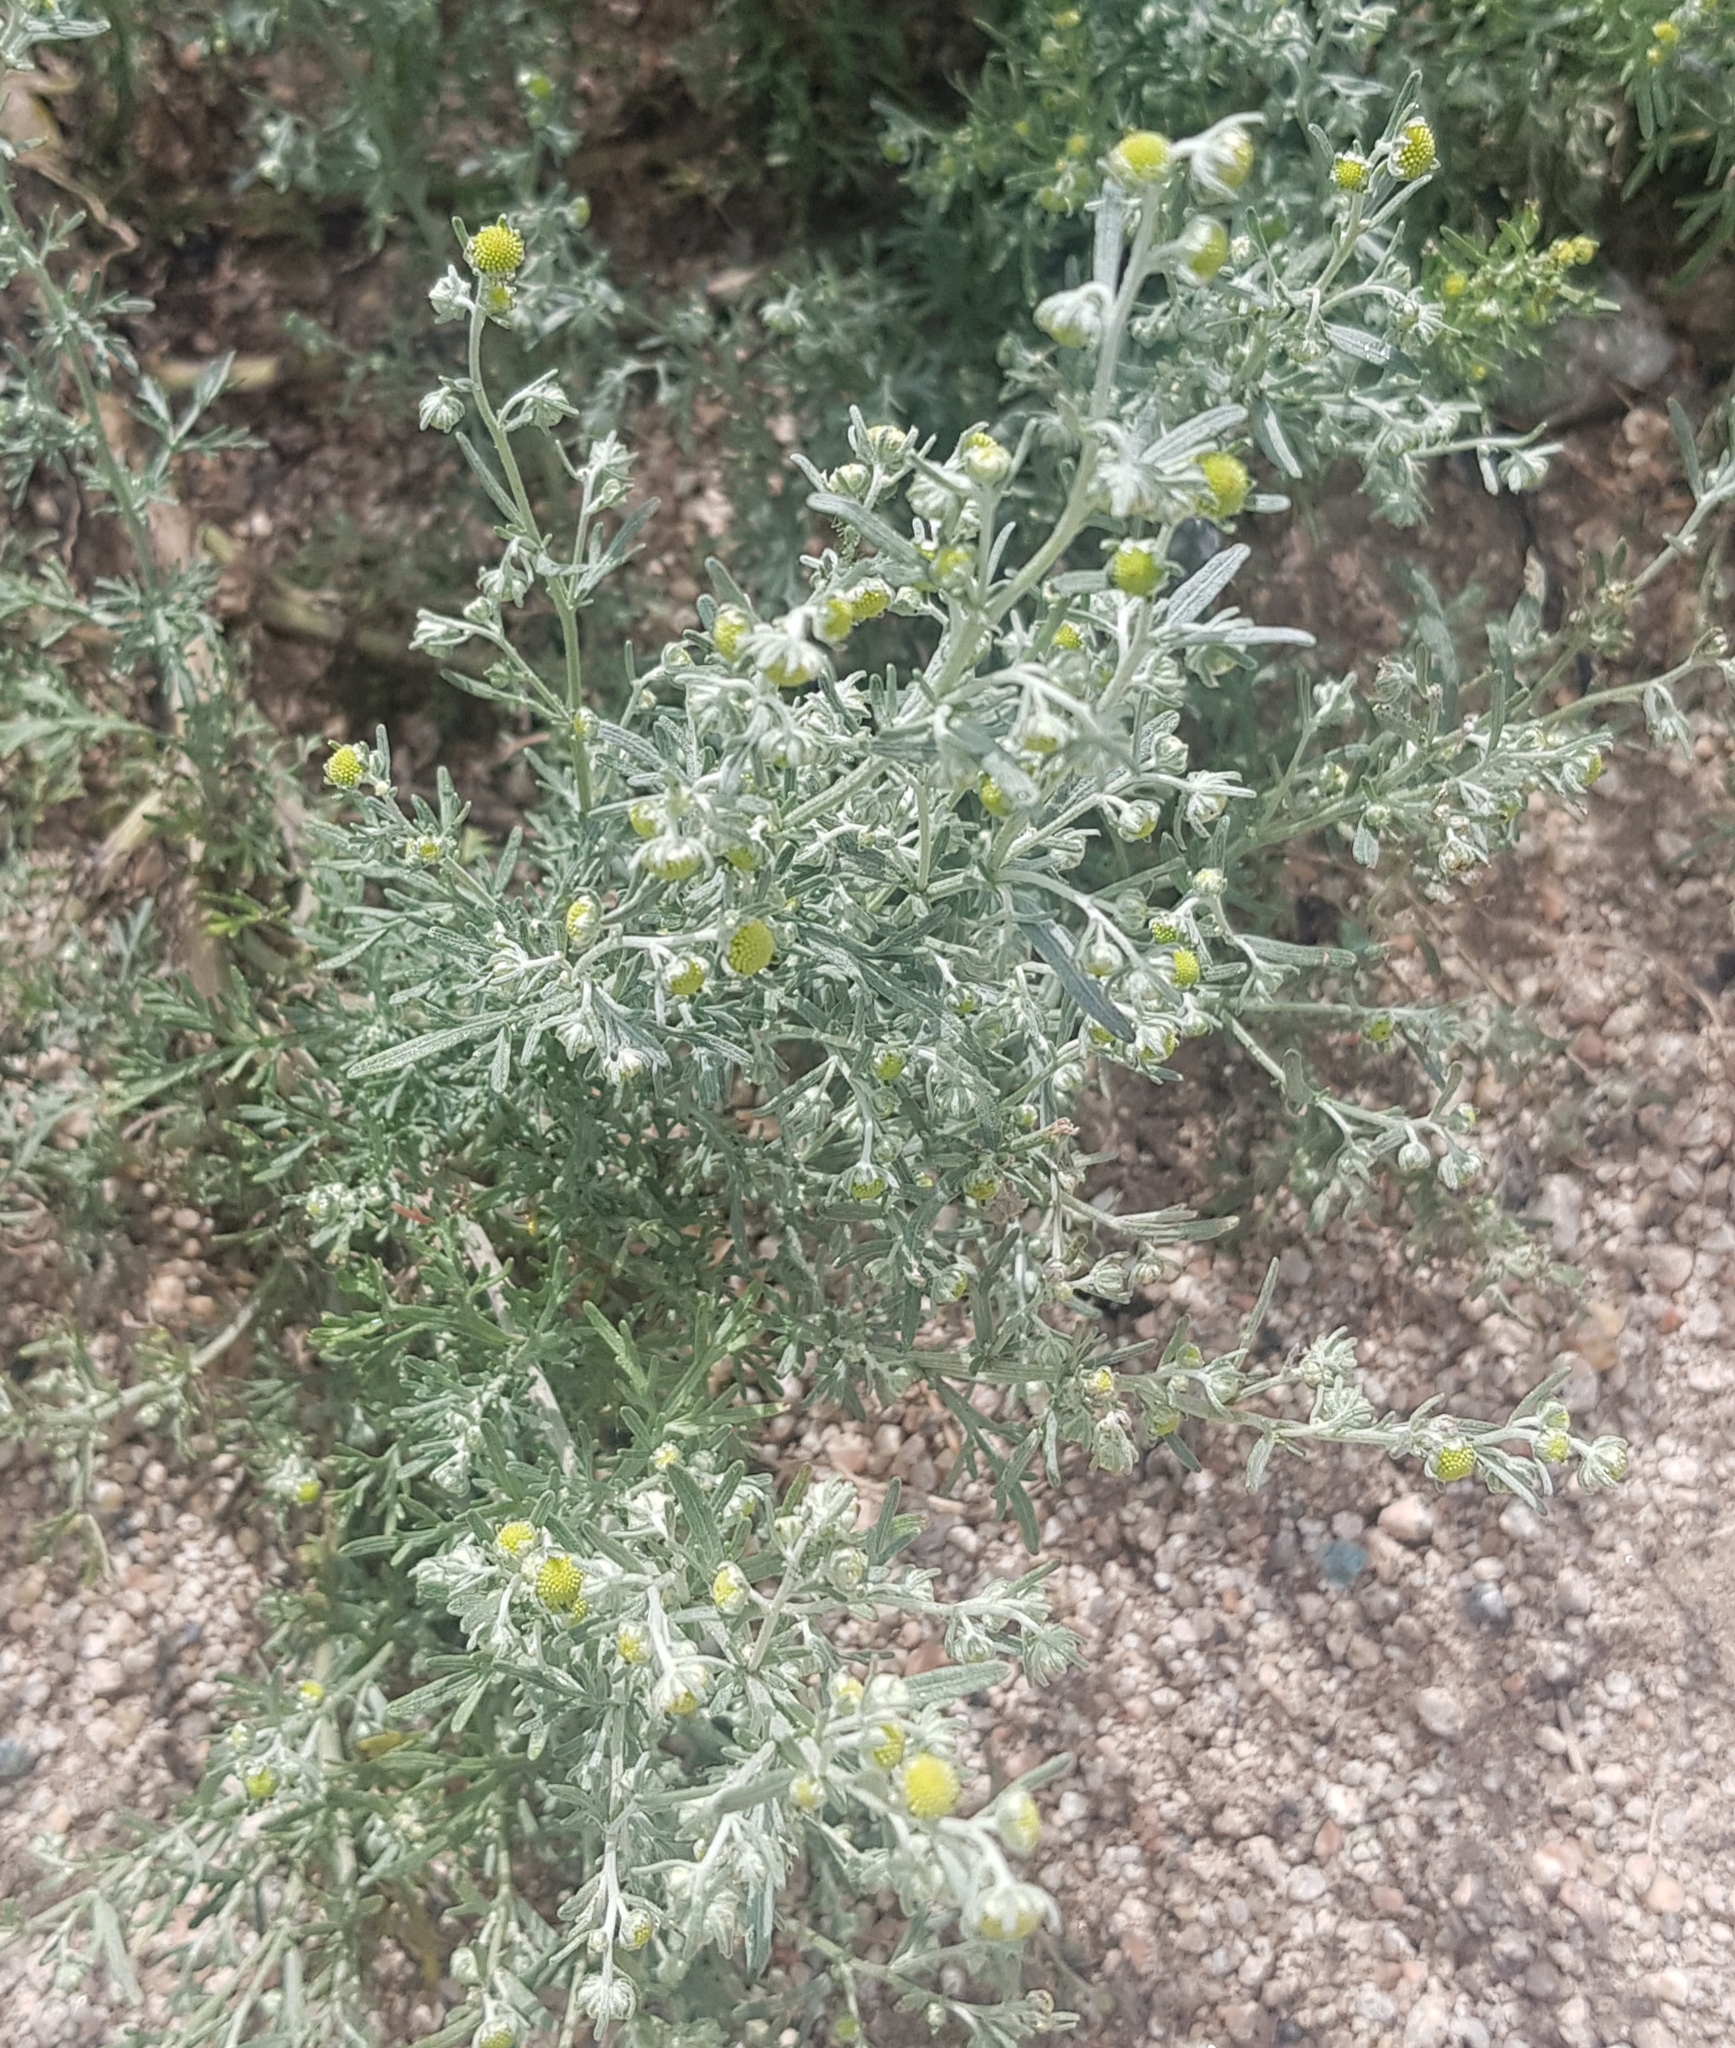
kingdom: Plantae
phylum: Tracheophyta
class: Magnoliopsida
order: Asterales
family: Asteraceae
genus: Artemisia
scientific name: Artemisia sieversiana
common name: Sieversian wormwood
